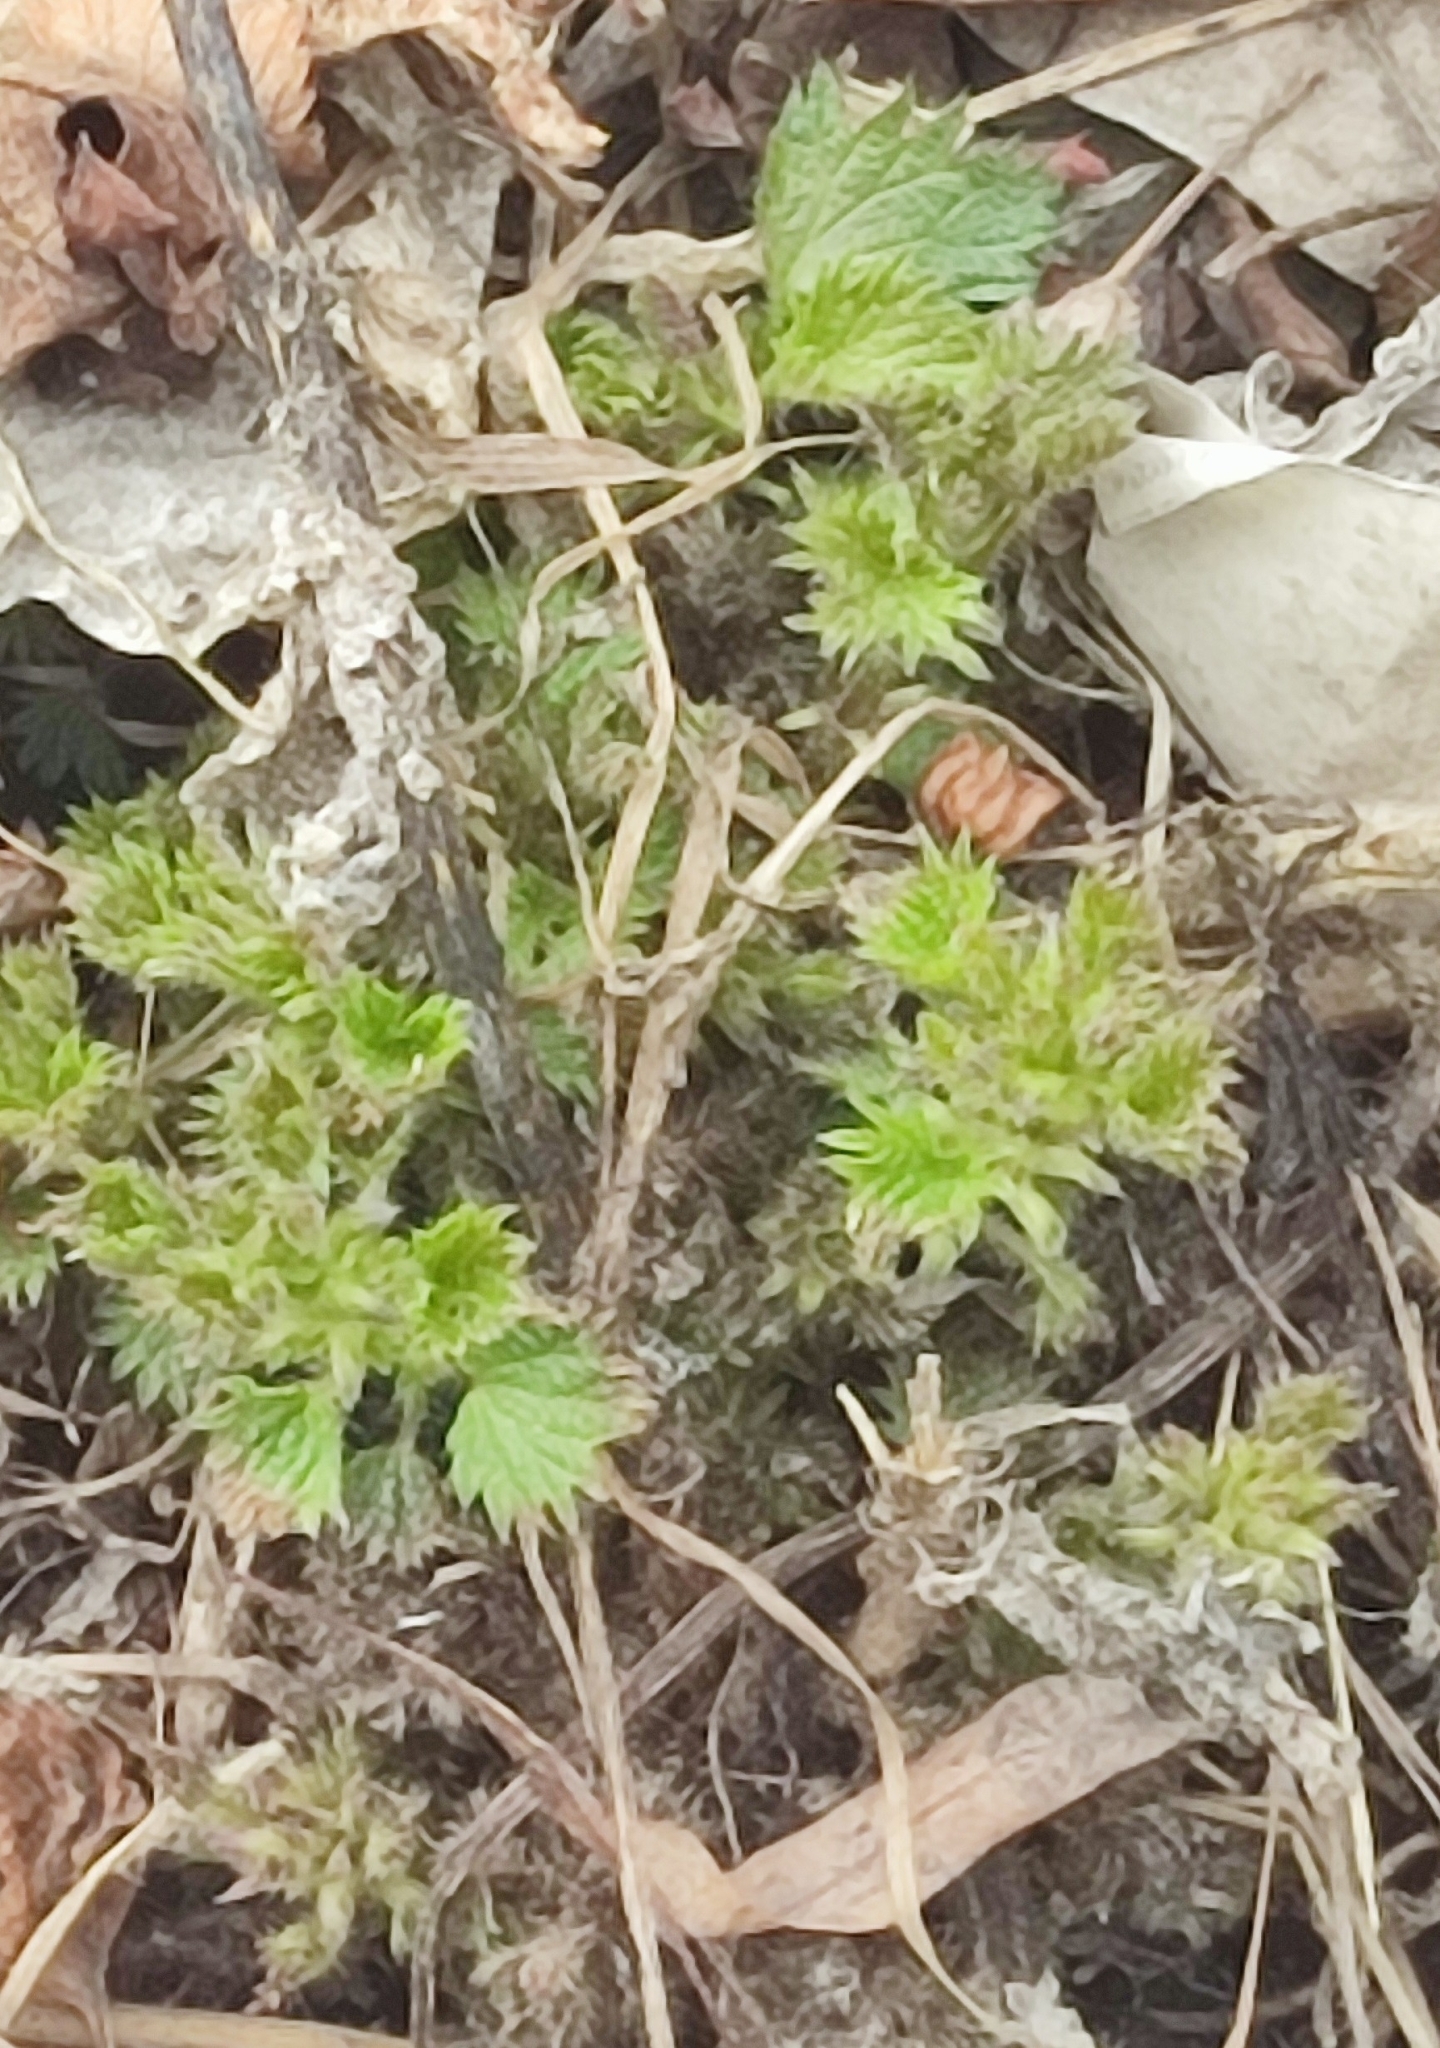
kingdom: Plantae
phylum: Tracheophyta
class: Magnoliopsida
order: Rosales
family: Urticaceae
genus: Urtica
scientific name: Urtica dioica
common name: Common nettle
